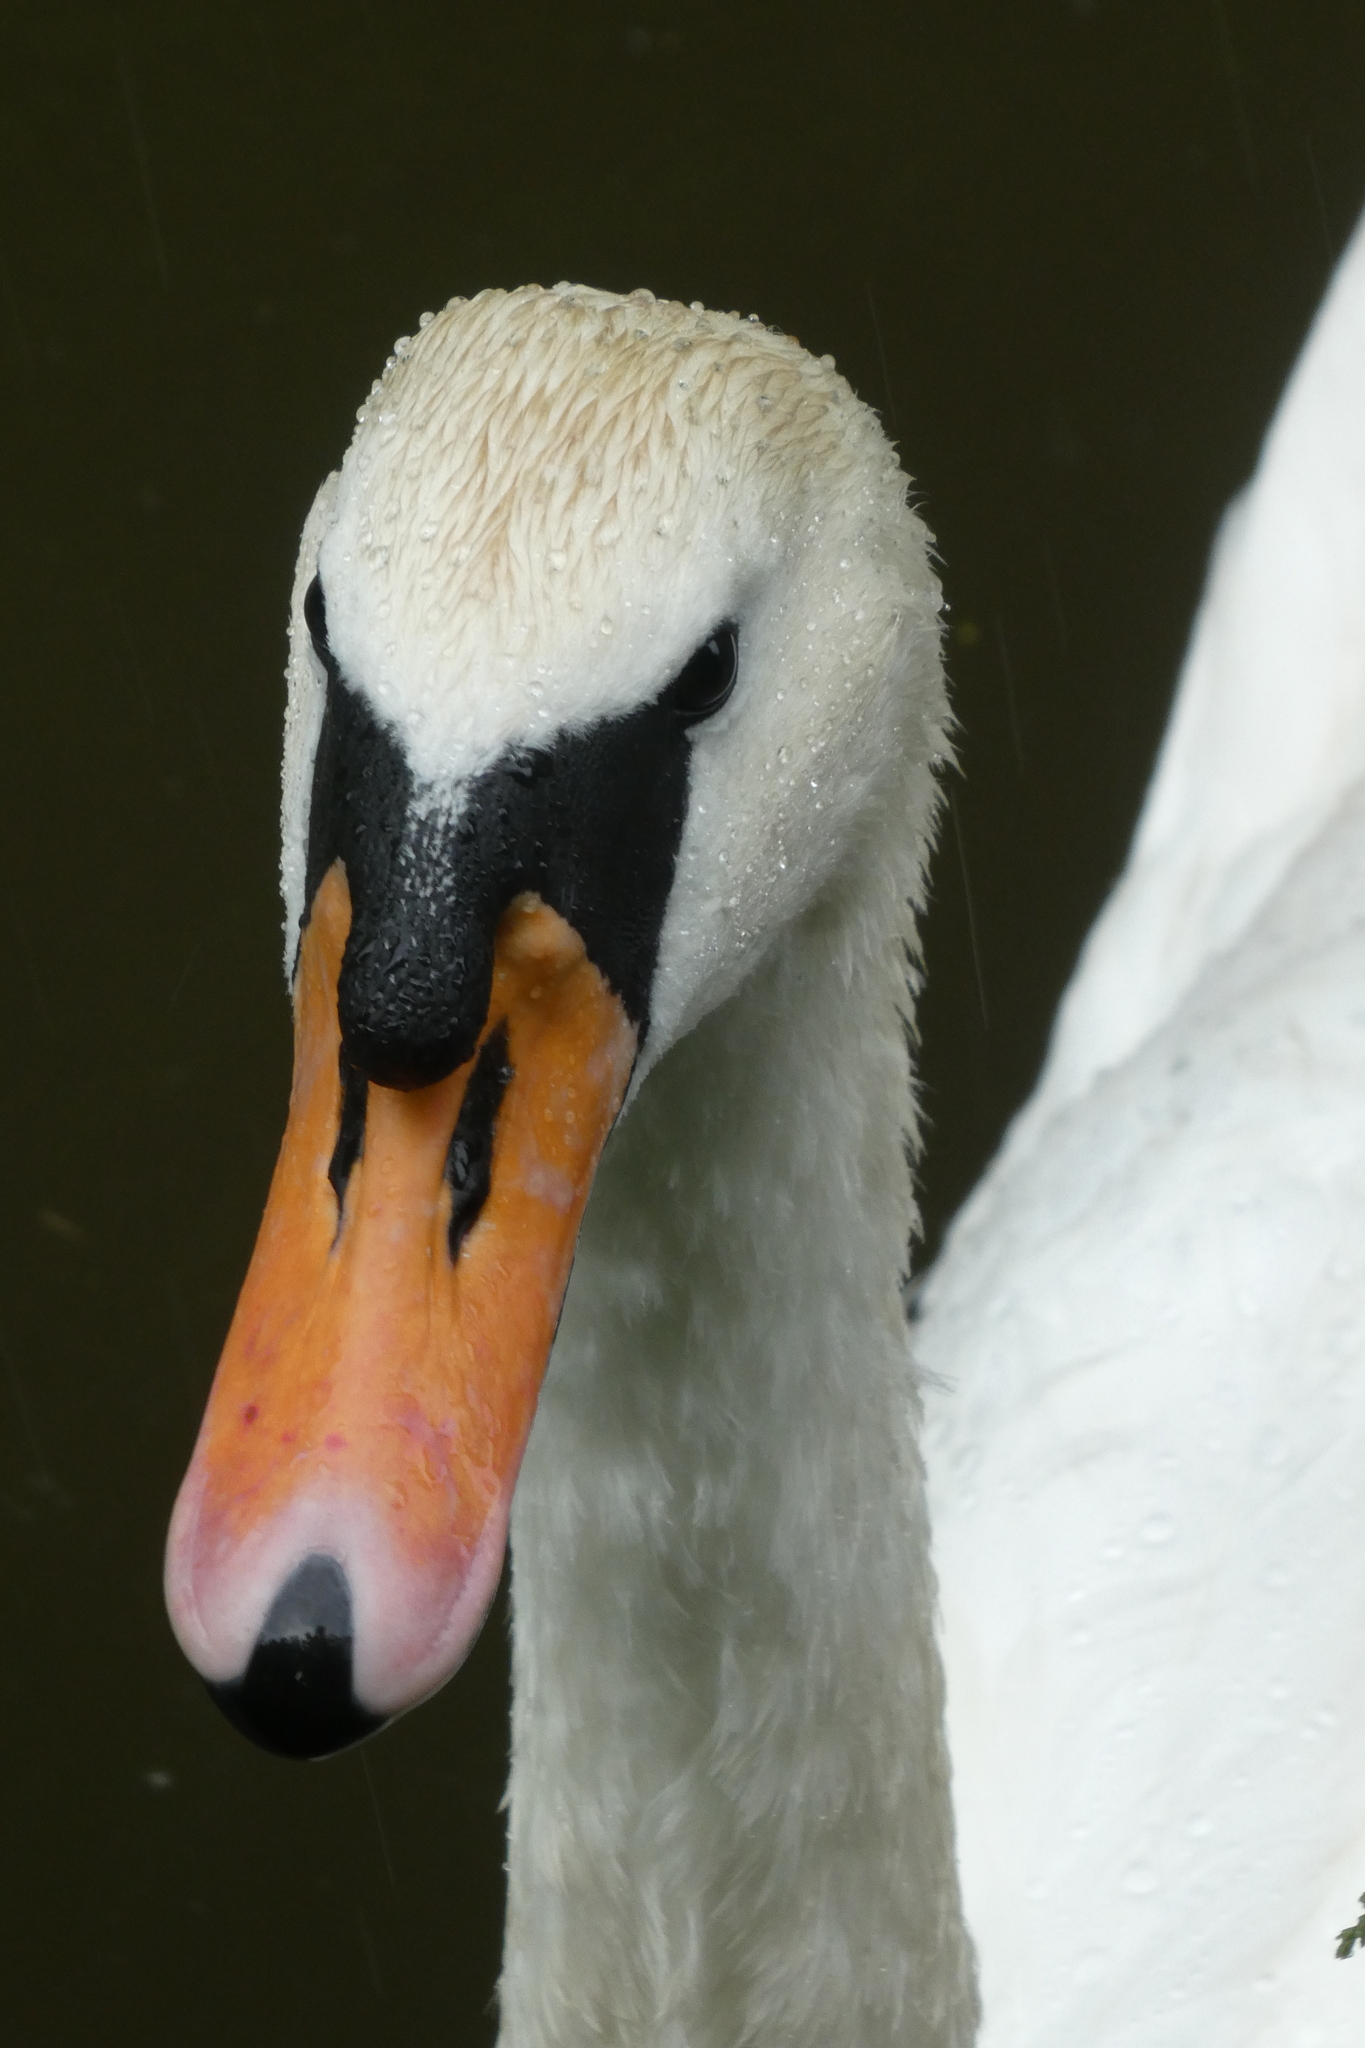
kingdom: Animalia
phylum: Chordata
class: Aves
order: Anseriformes
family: Anatidae
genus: Cygnus
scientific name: Cygnus olor
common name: Mute swan
